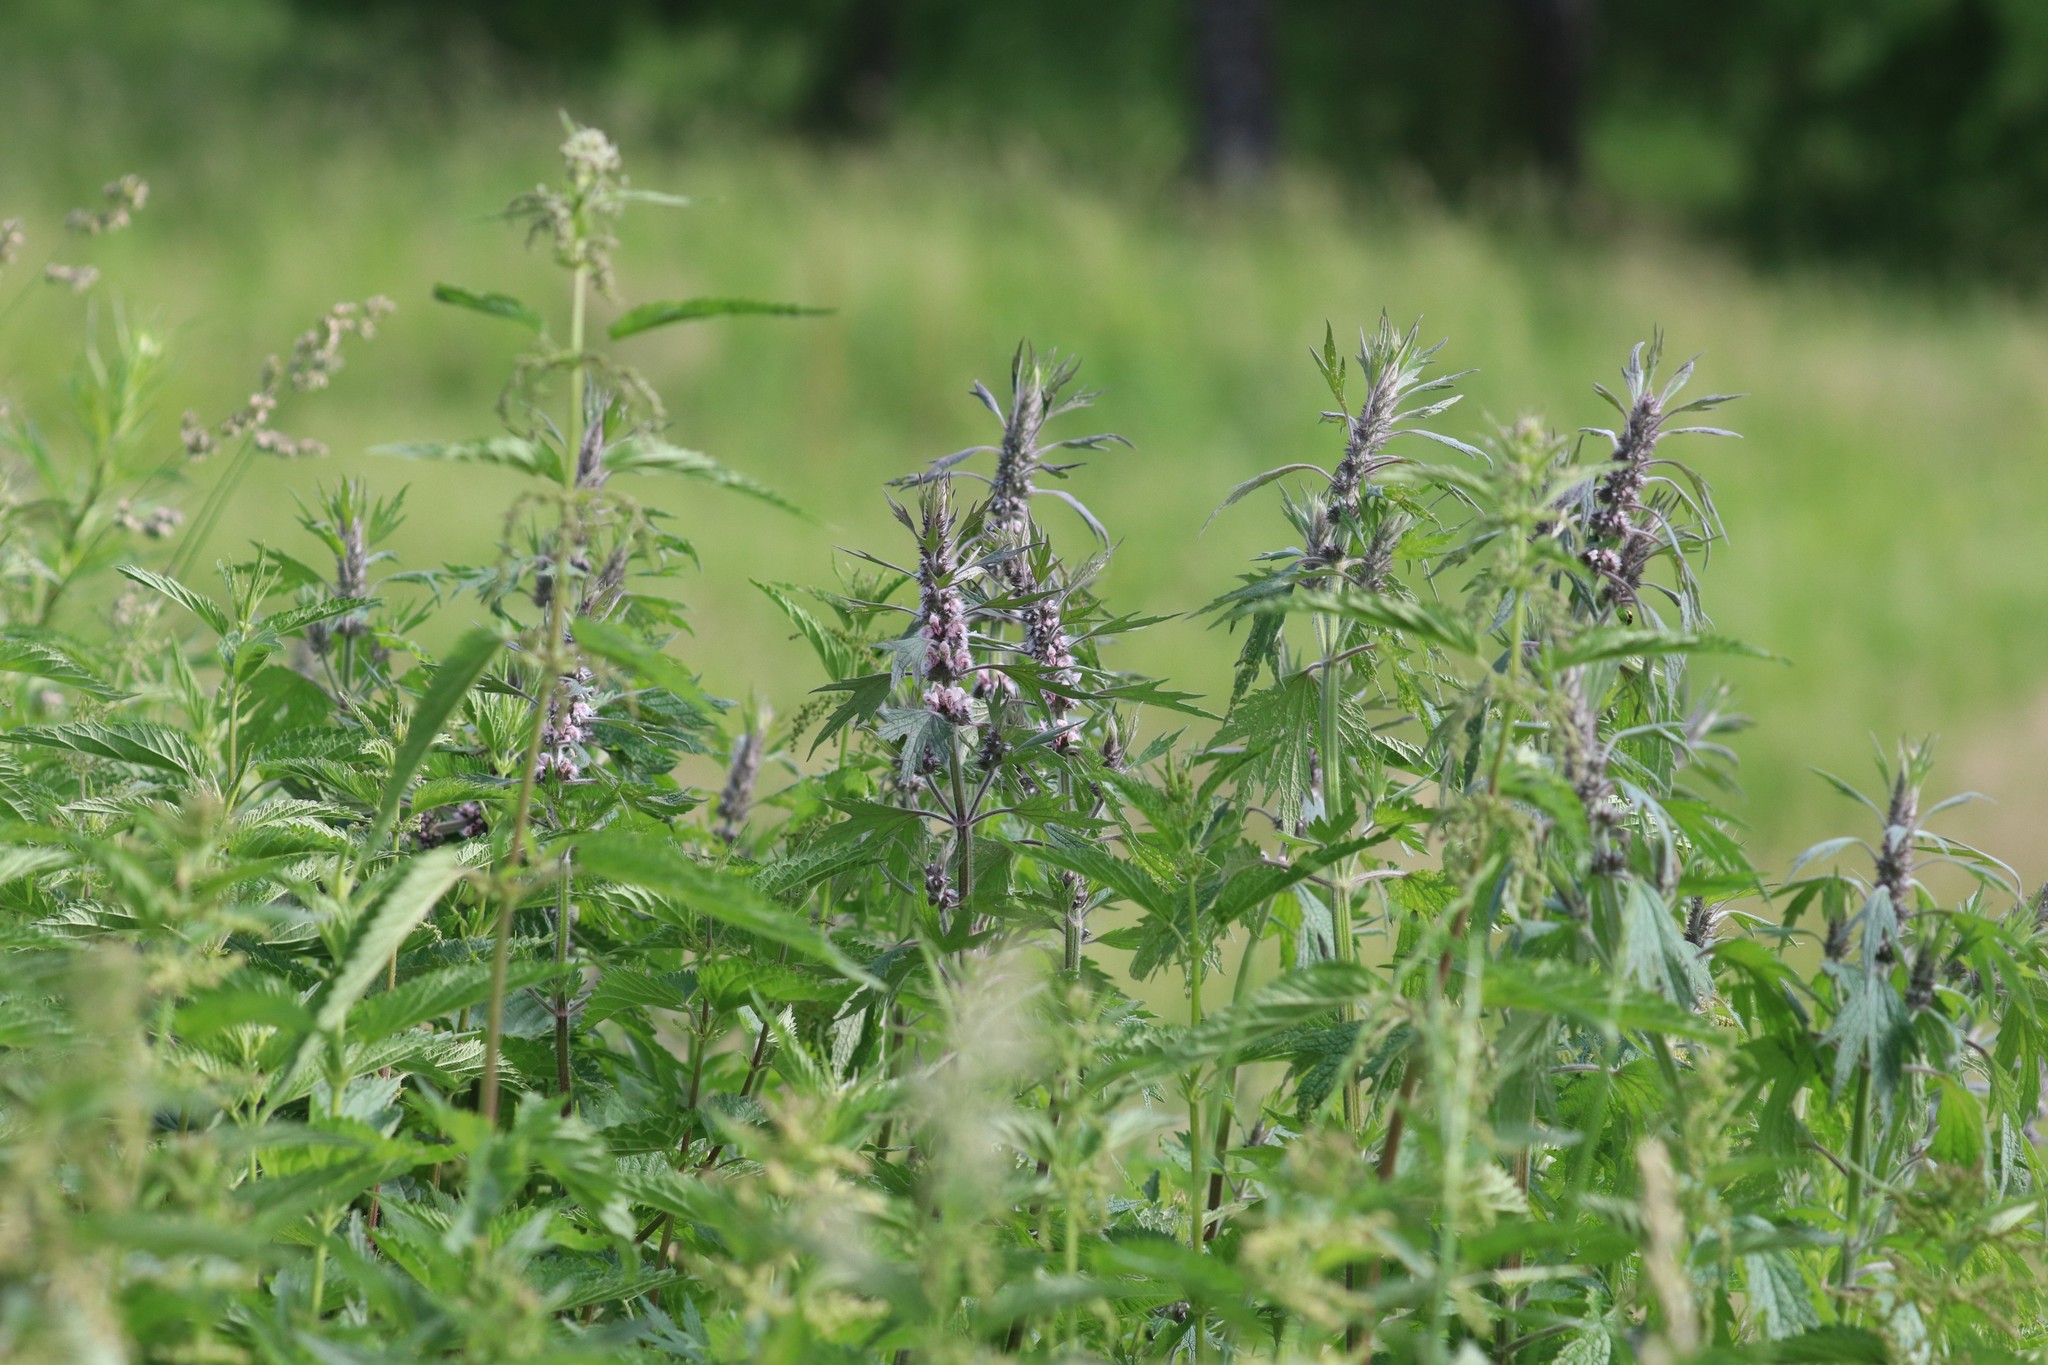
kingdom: Plantae
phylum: Tracheophyta
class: Magnoliopsida
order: Lamiales
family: Lamiaceae
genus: Leonurus
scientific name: Leonurus quinquelobatus
